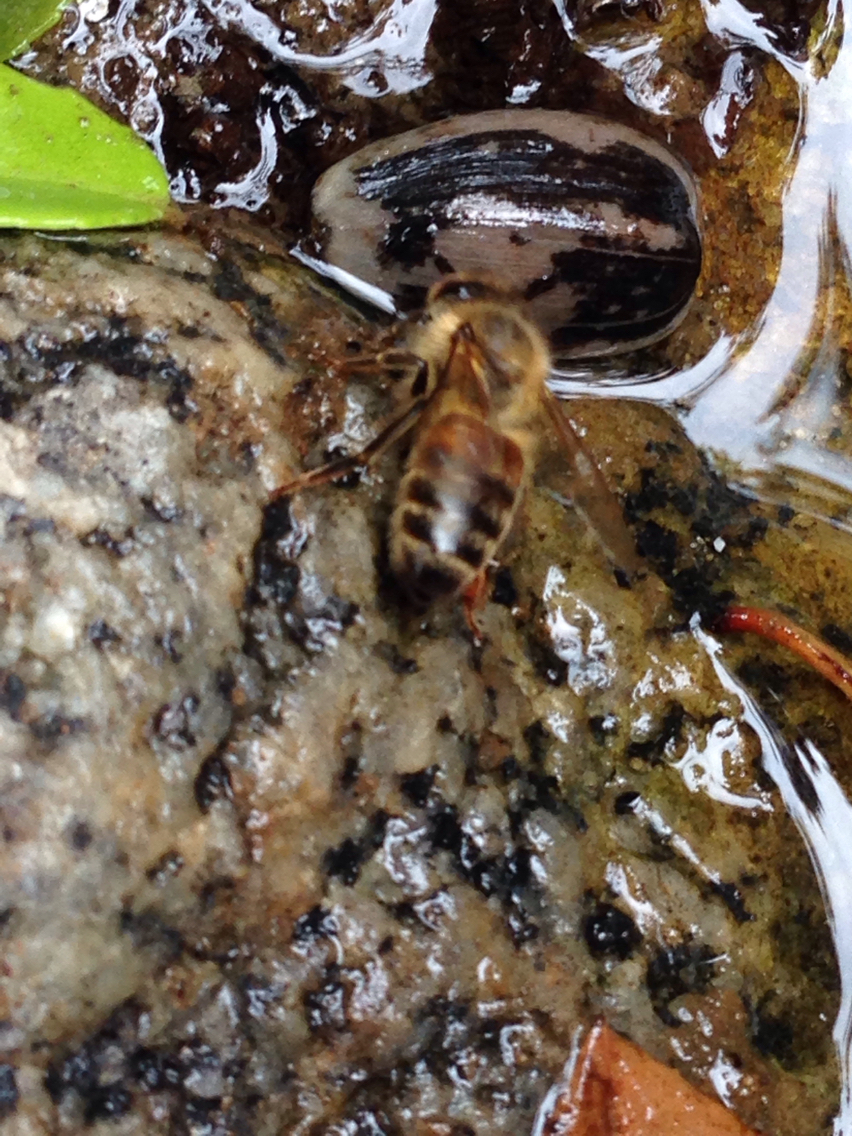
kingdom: Animalia
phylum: Arthropoda
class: Insecta
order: Hymenoptera
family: Apidae
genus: Apis
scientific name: Apis mellifera
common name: Honey bee
